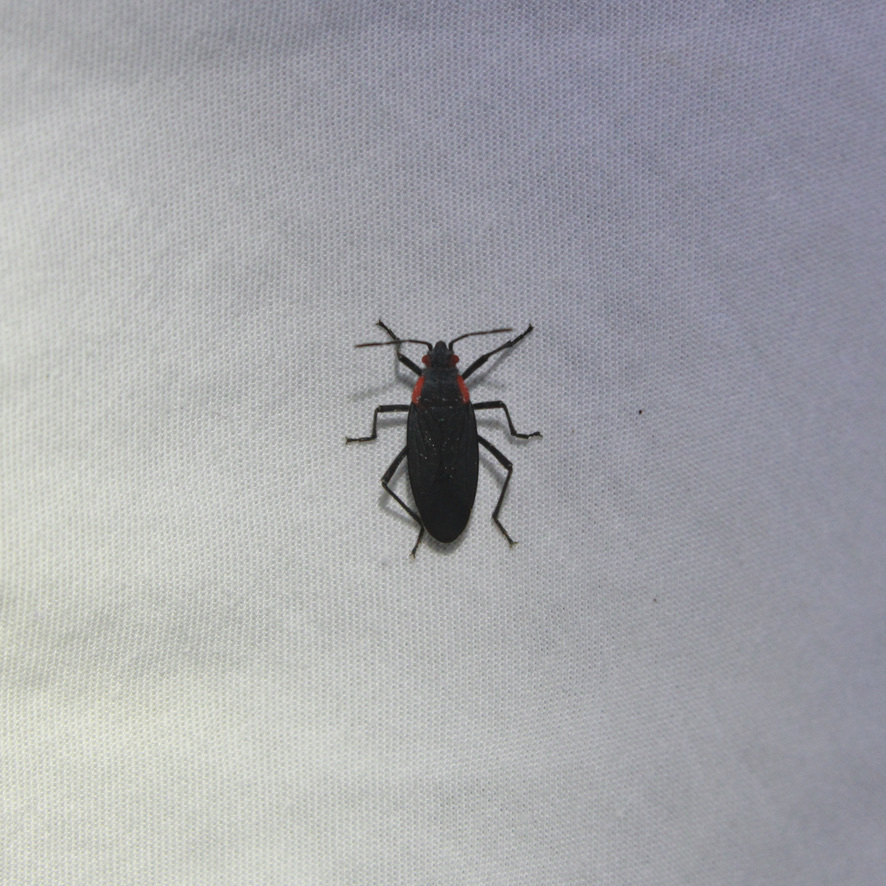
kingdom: Animalia
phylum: Arthropoda
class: Insecta
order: Hemiptera
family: Rhopalidae
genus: Jadera
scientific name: Jadera haematoloma
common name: Red-shouldered bug
